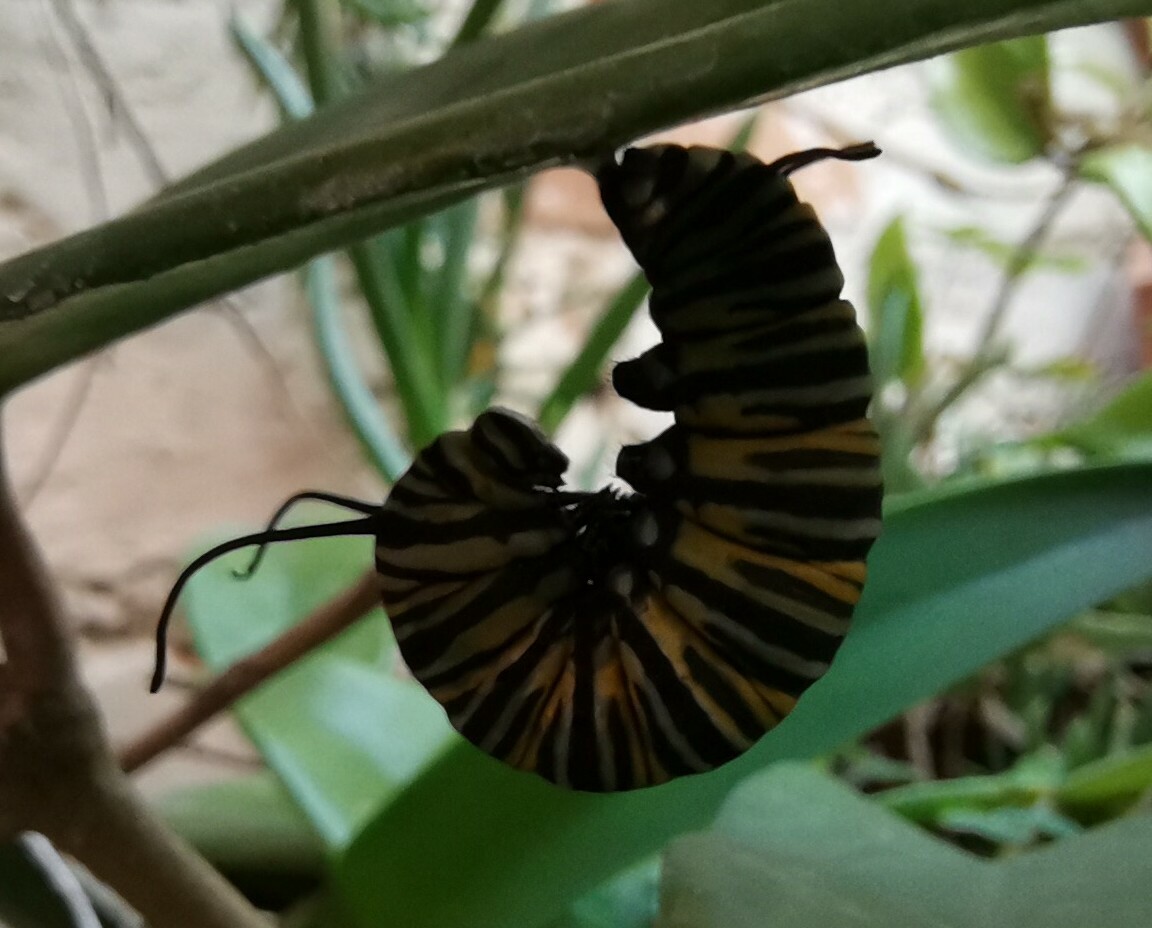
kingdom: Animalia
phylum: Arthropoda
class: Insecta
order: Lepidoptera
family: Nymphalidae
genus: Danaus
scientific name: Danaus plexippus
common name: Monarch
